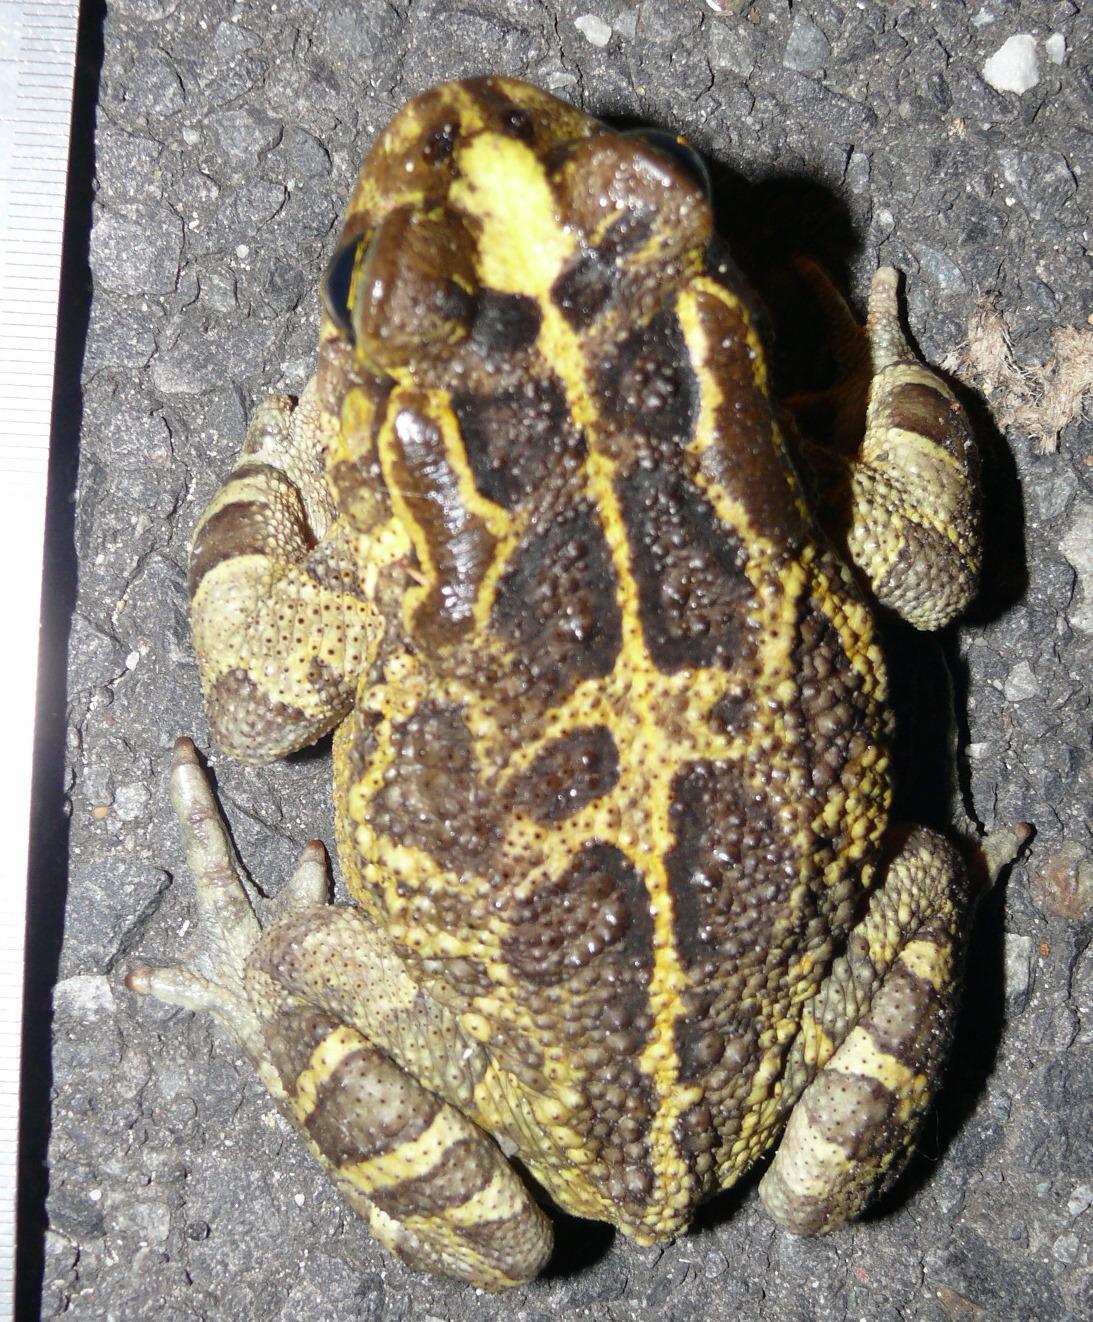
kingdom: Animalia
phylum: Chordata
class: Amphibia
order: Anura
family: Bufonidae
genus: Sclerophrys
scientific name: Sclerophrys pantherina
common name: Panther toad
